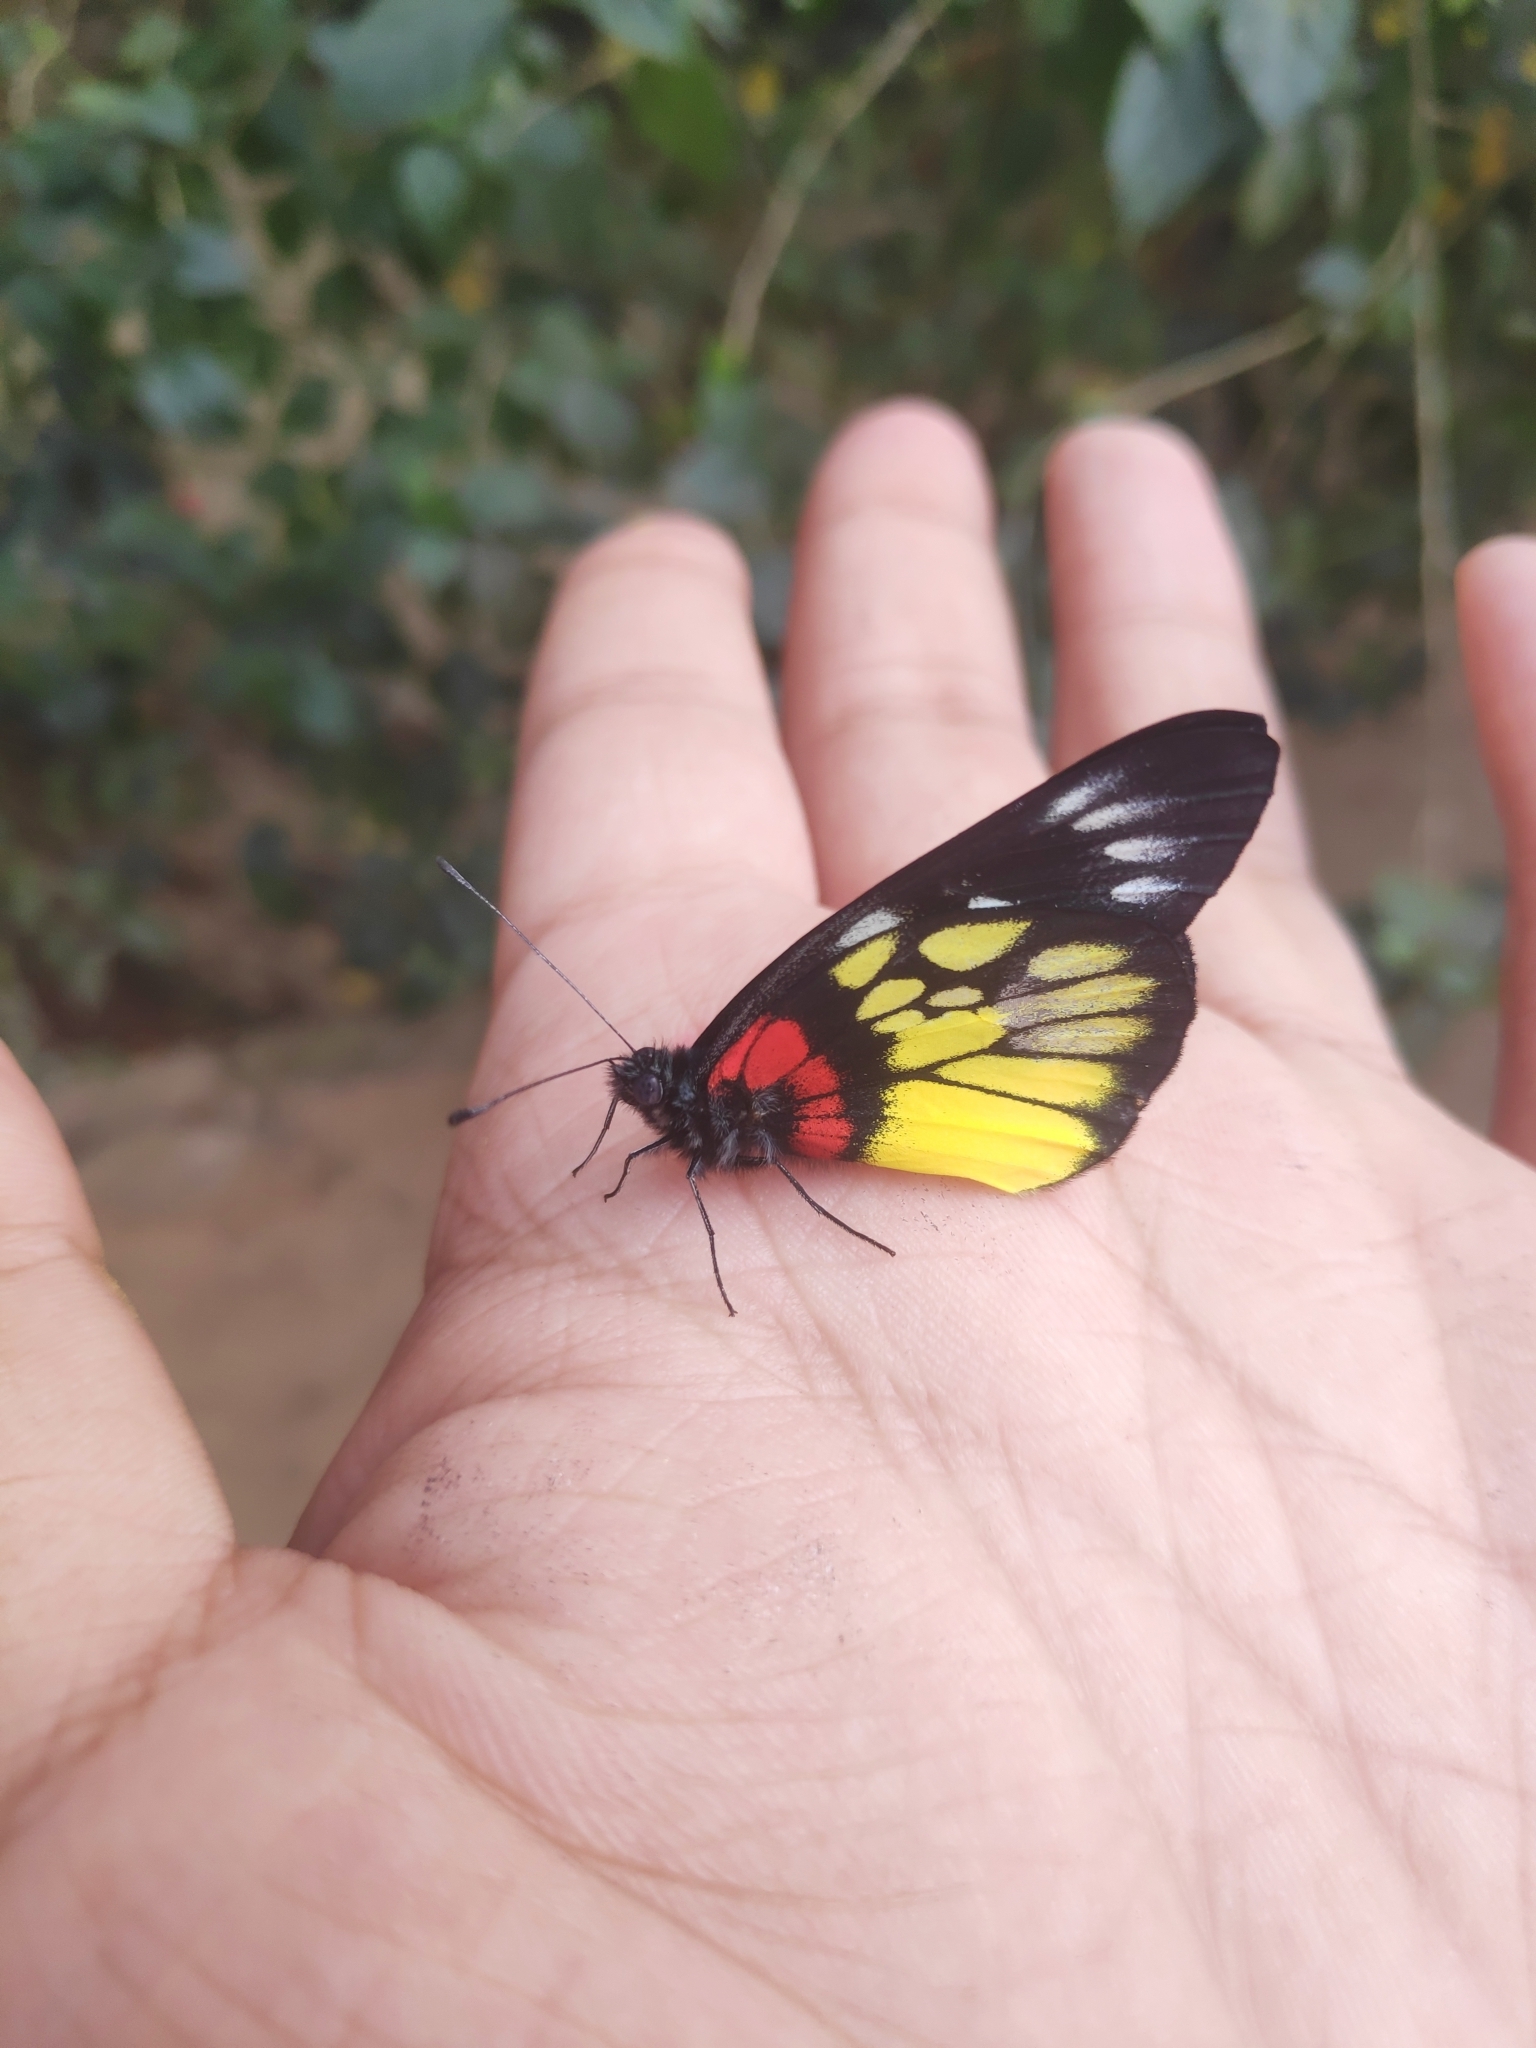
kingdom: Animalia
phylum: Arthropoda
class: Insecta
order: Lepidoptera
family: Pieridae
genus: Delias
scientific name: Delias pasithoe
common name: Red-base jezebel
